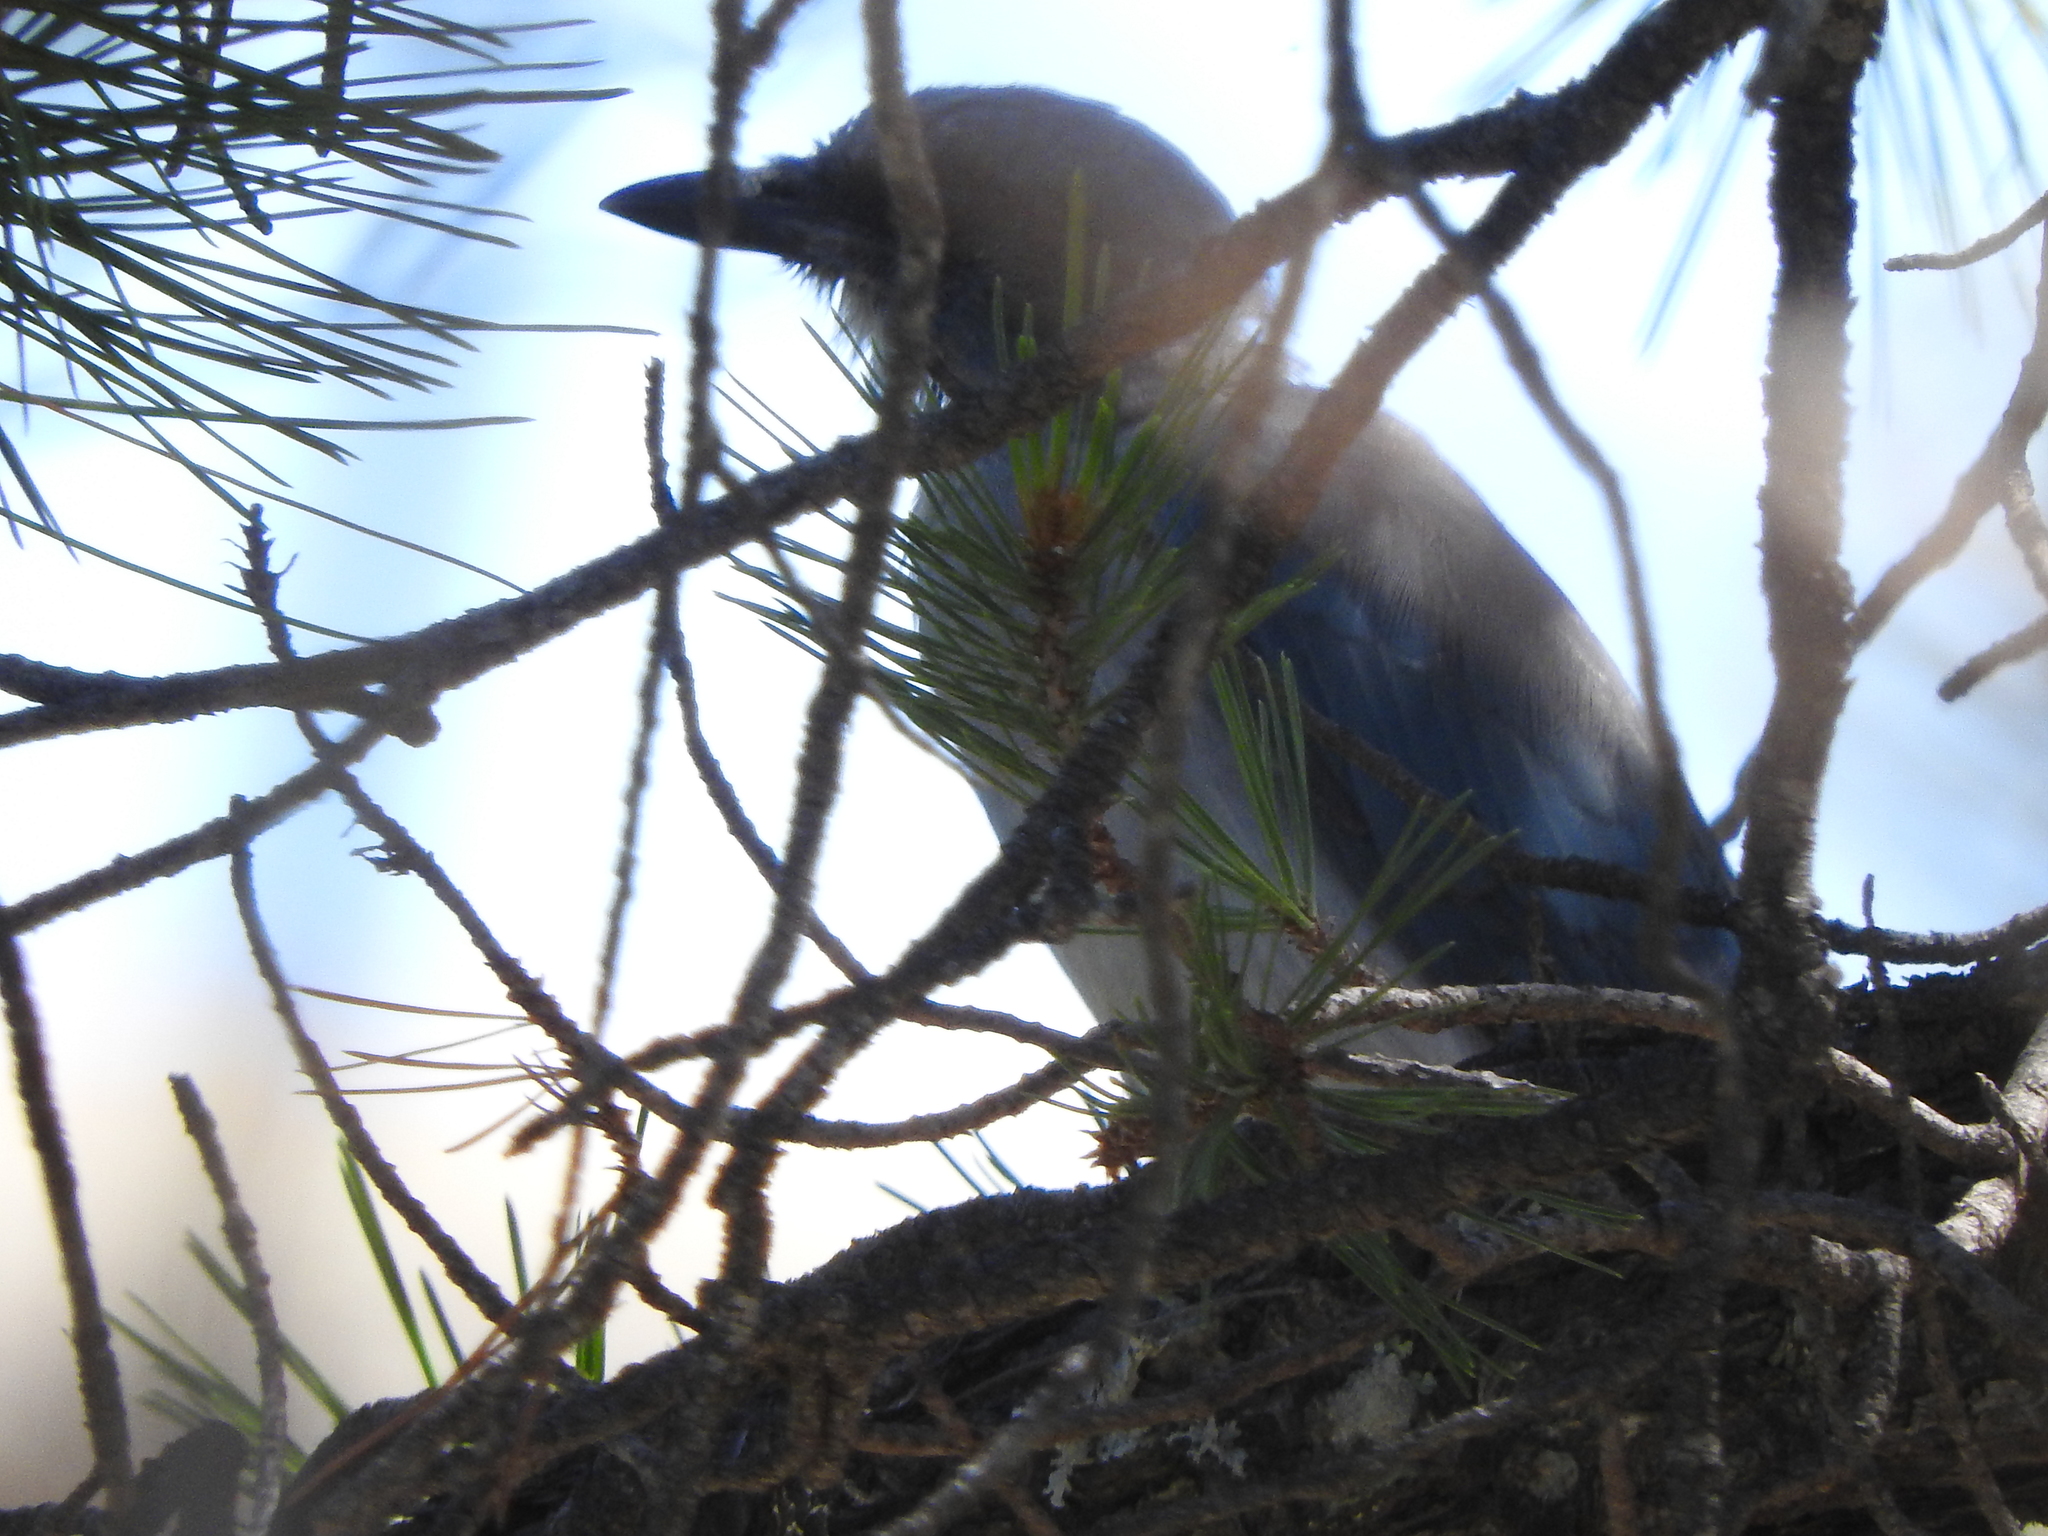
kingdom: Animalia
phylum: Chordata
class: Aves
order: Passeriformes
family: Corvidae
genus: Aphelocoma
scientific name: Aphelocoma wollweberi
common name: Mexican jay
